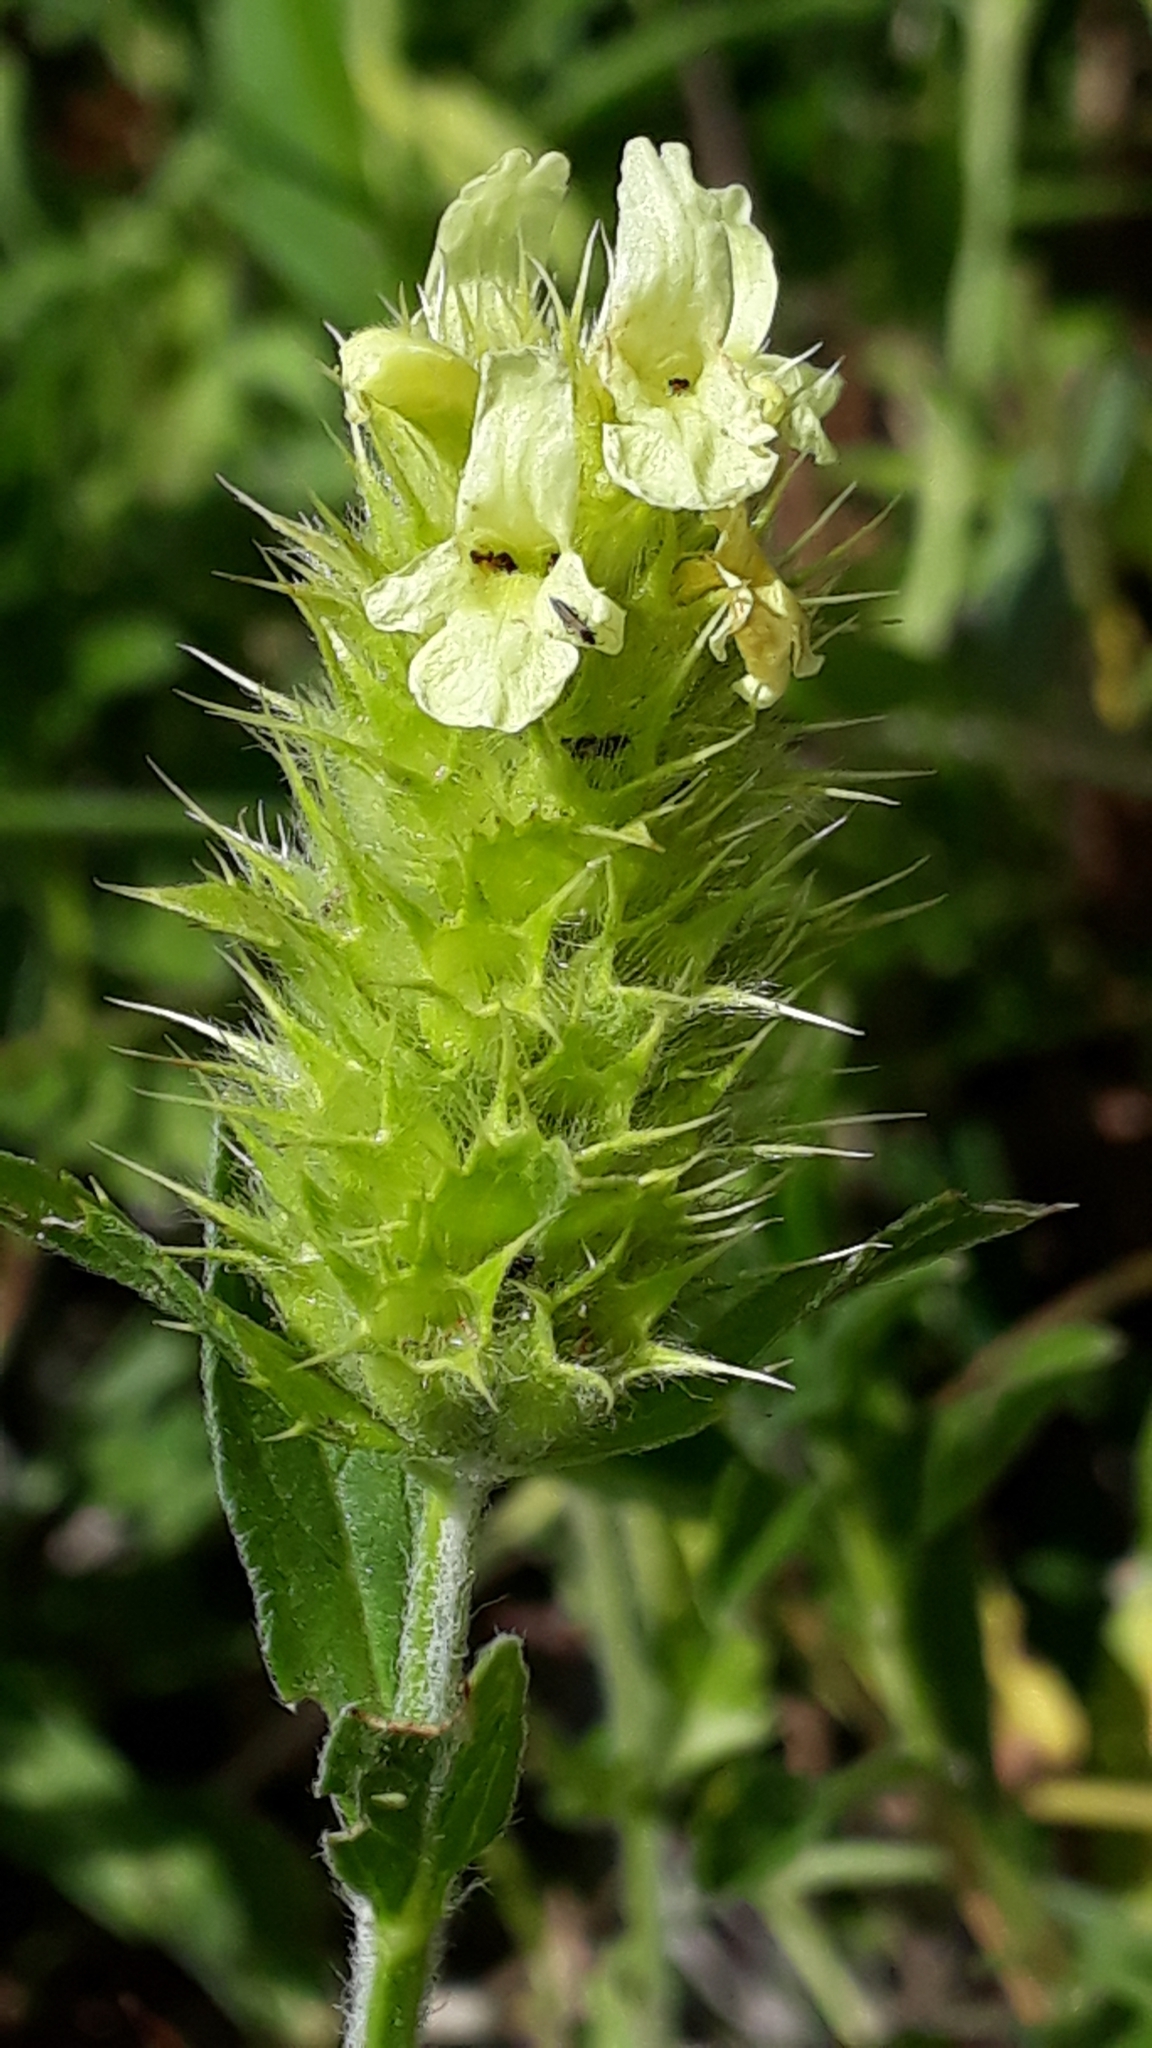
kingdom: Plantae
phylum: Tracheophyta
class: Magnoliopsida
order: Lamiales
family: Lamiaceae
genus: Sideritis
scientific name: Sideritis hyssopifolia
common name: Mountain tea
